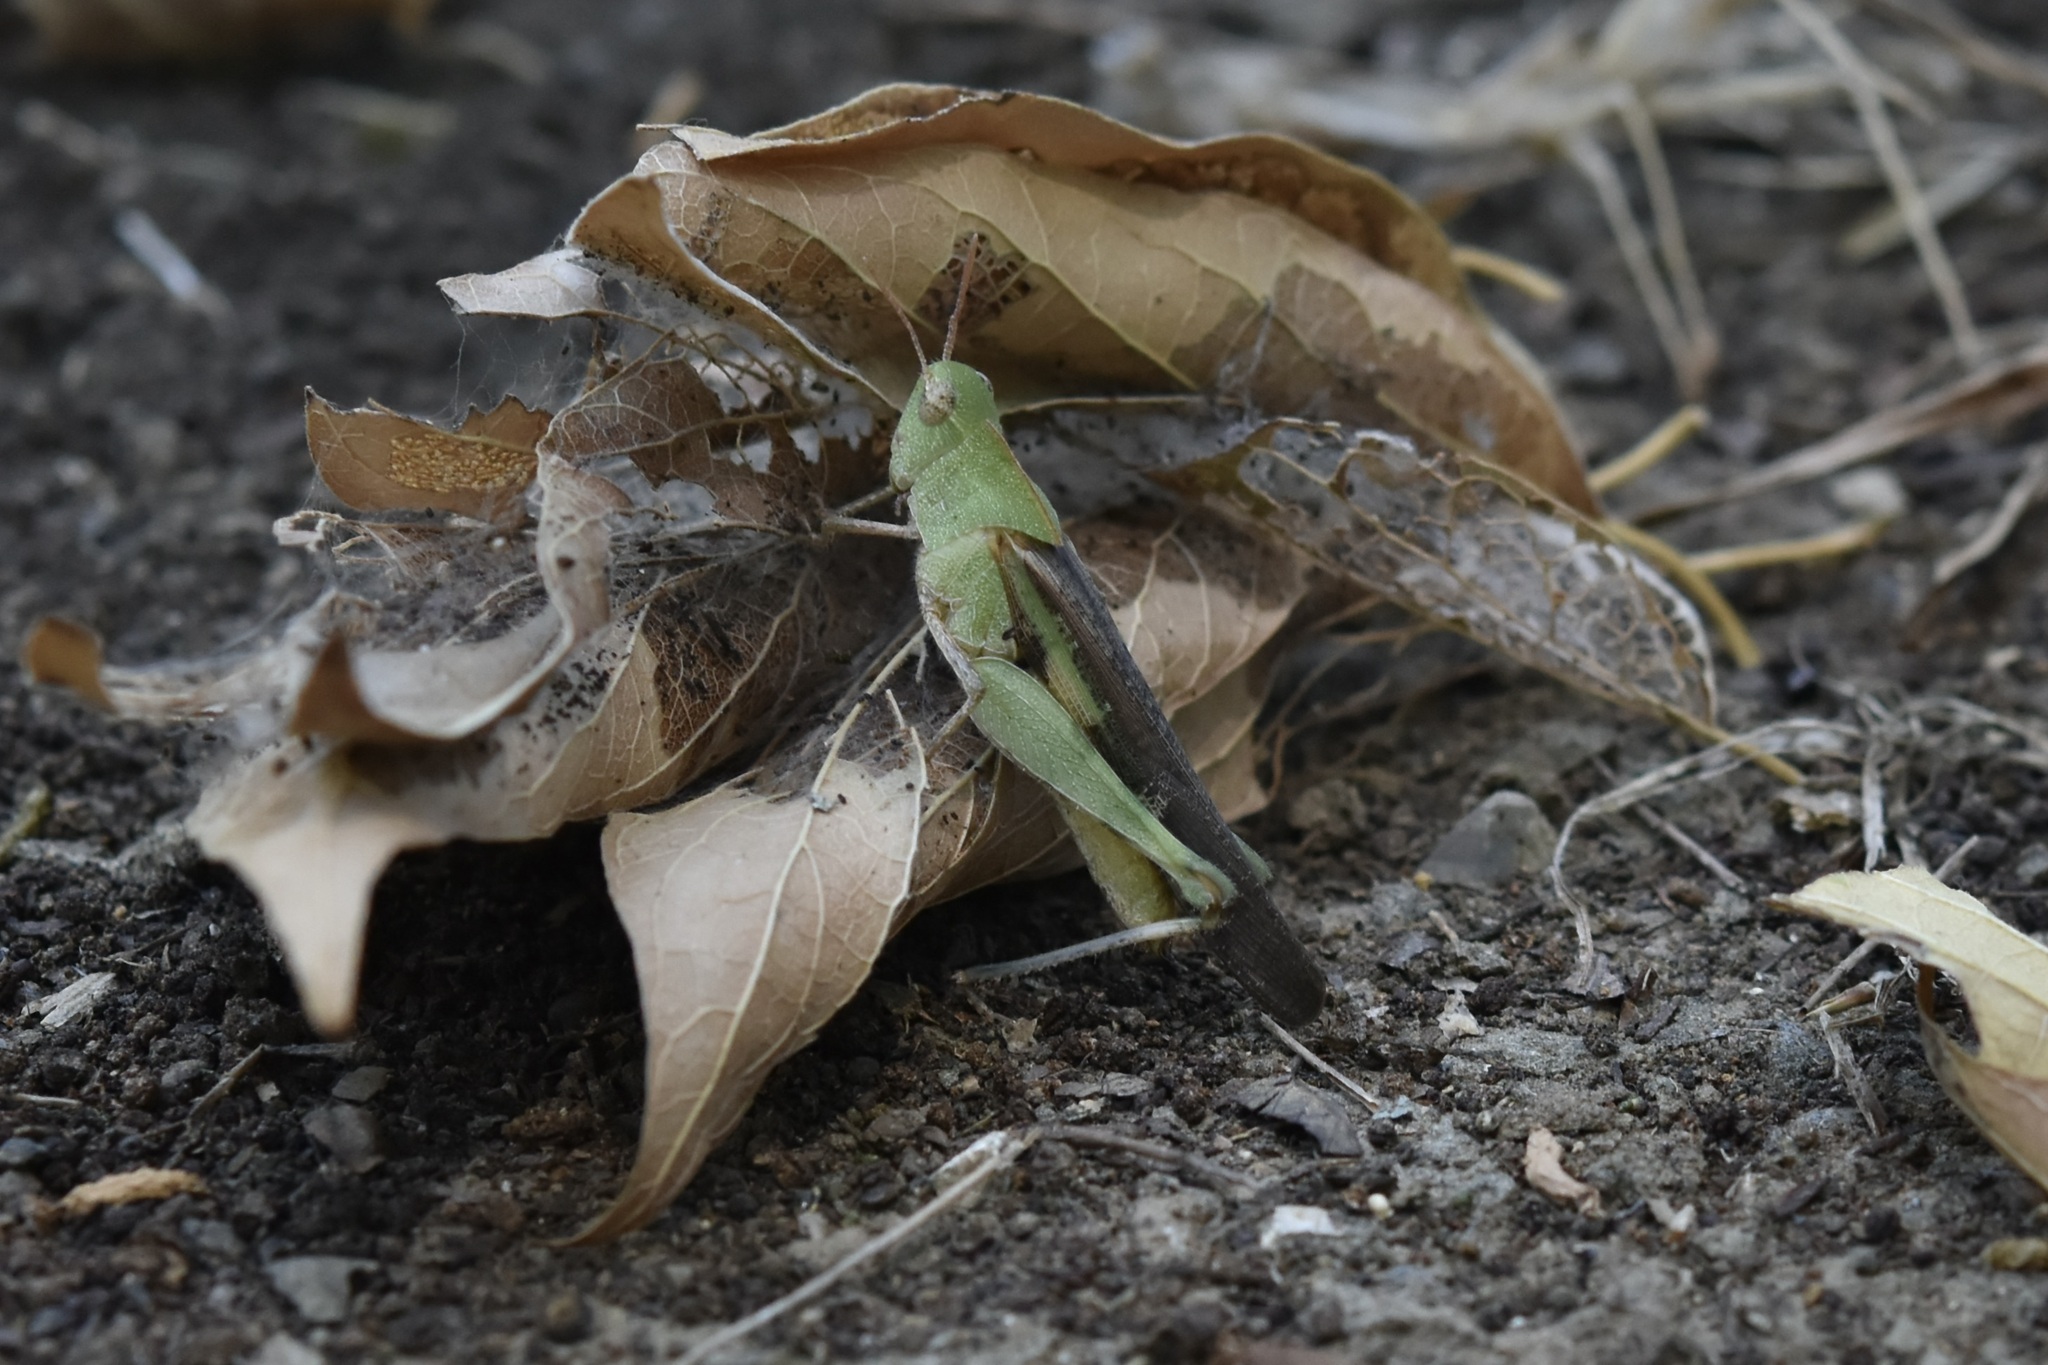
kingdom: Animalia
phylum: Arthropoda
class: Insecta
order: Orthoptera
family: Acrididae
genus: Chortophaga
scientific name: Chortophaga viridifasciata
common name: Green-striped grasshopper
